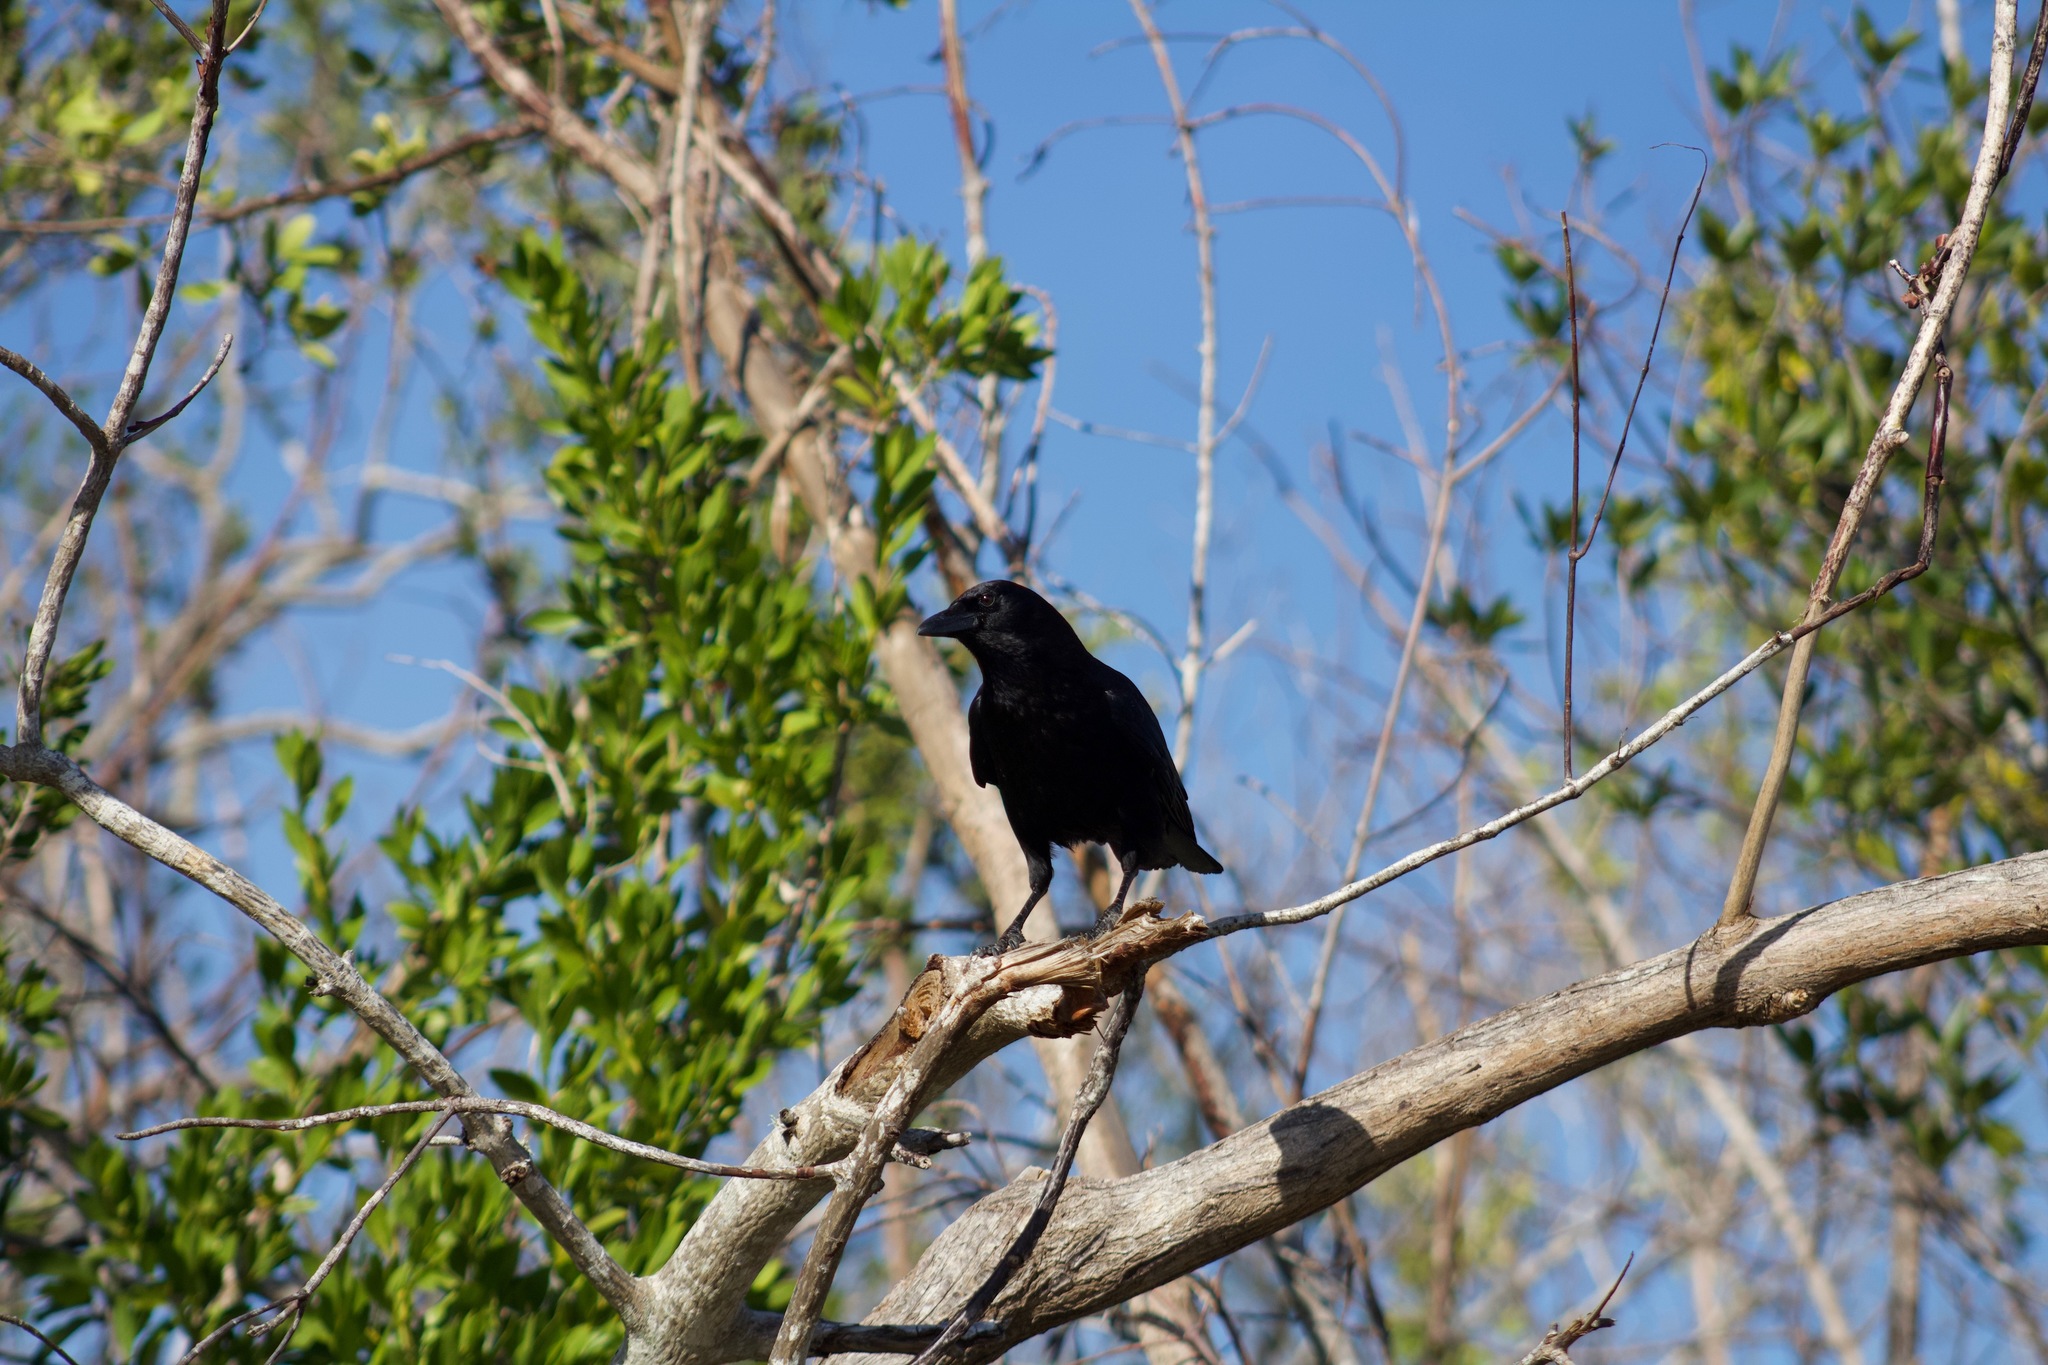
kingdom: Animalia
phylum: Chordata
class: Aves
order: Passeriformes
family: Corvidae
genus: Corvus
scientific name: Corvus brachyrhynchos
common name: American crow
